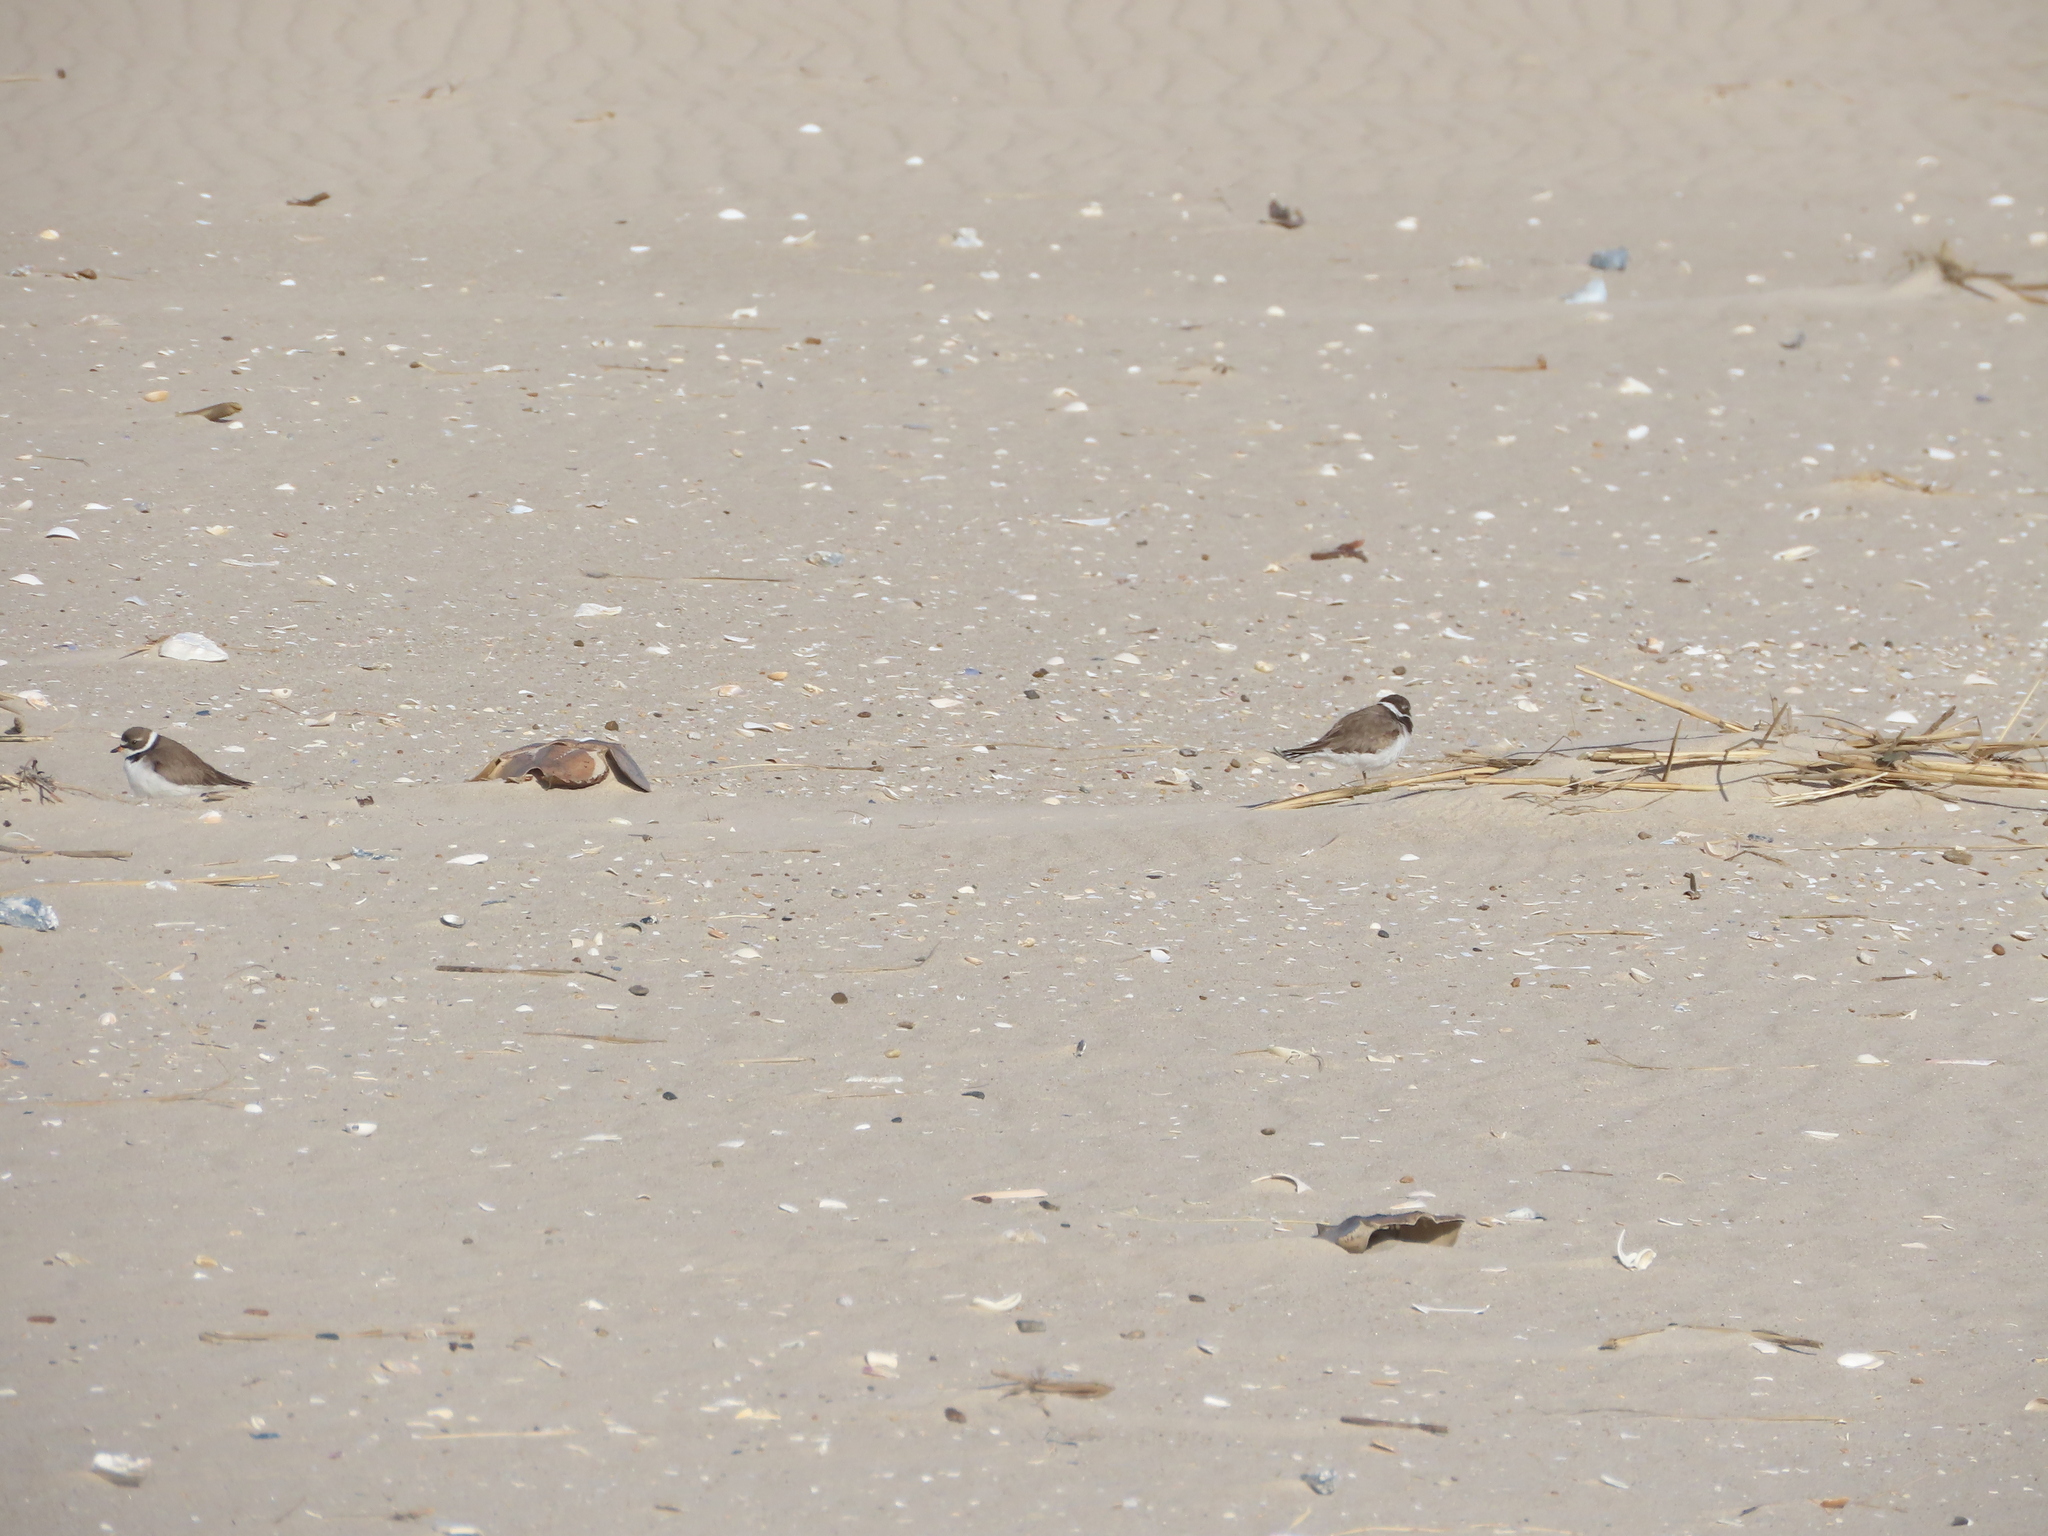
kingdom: Animalia
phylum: Chordata
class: Aves
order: Charadriiformes
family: Charadriidae
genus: Charadrius
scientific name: Charadrius semipalmatus
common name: Semipalmated plover
